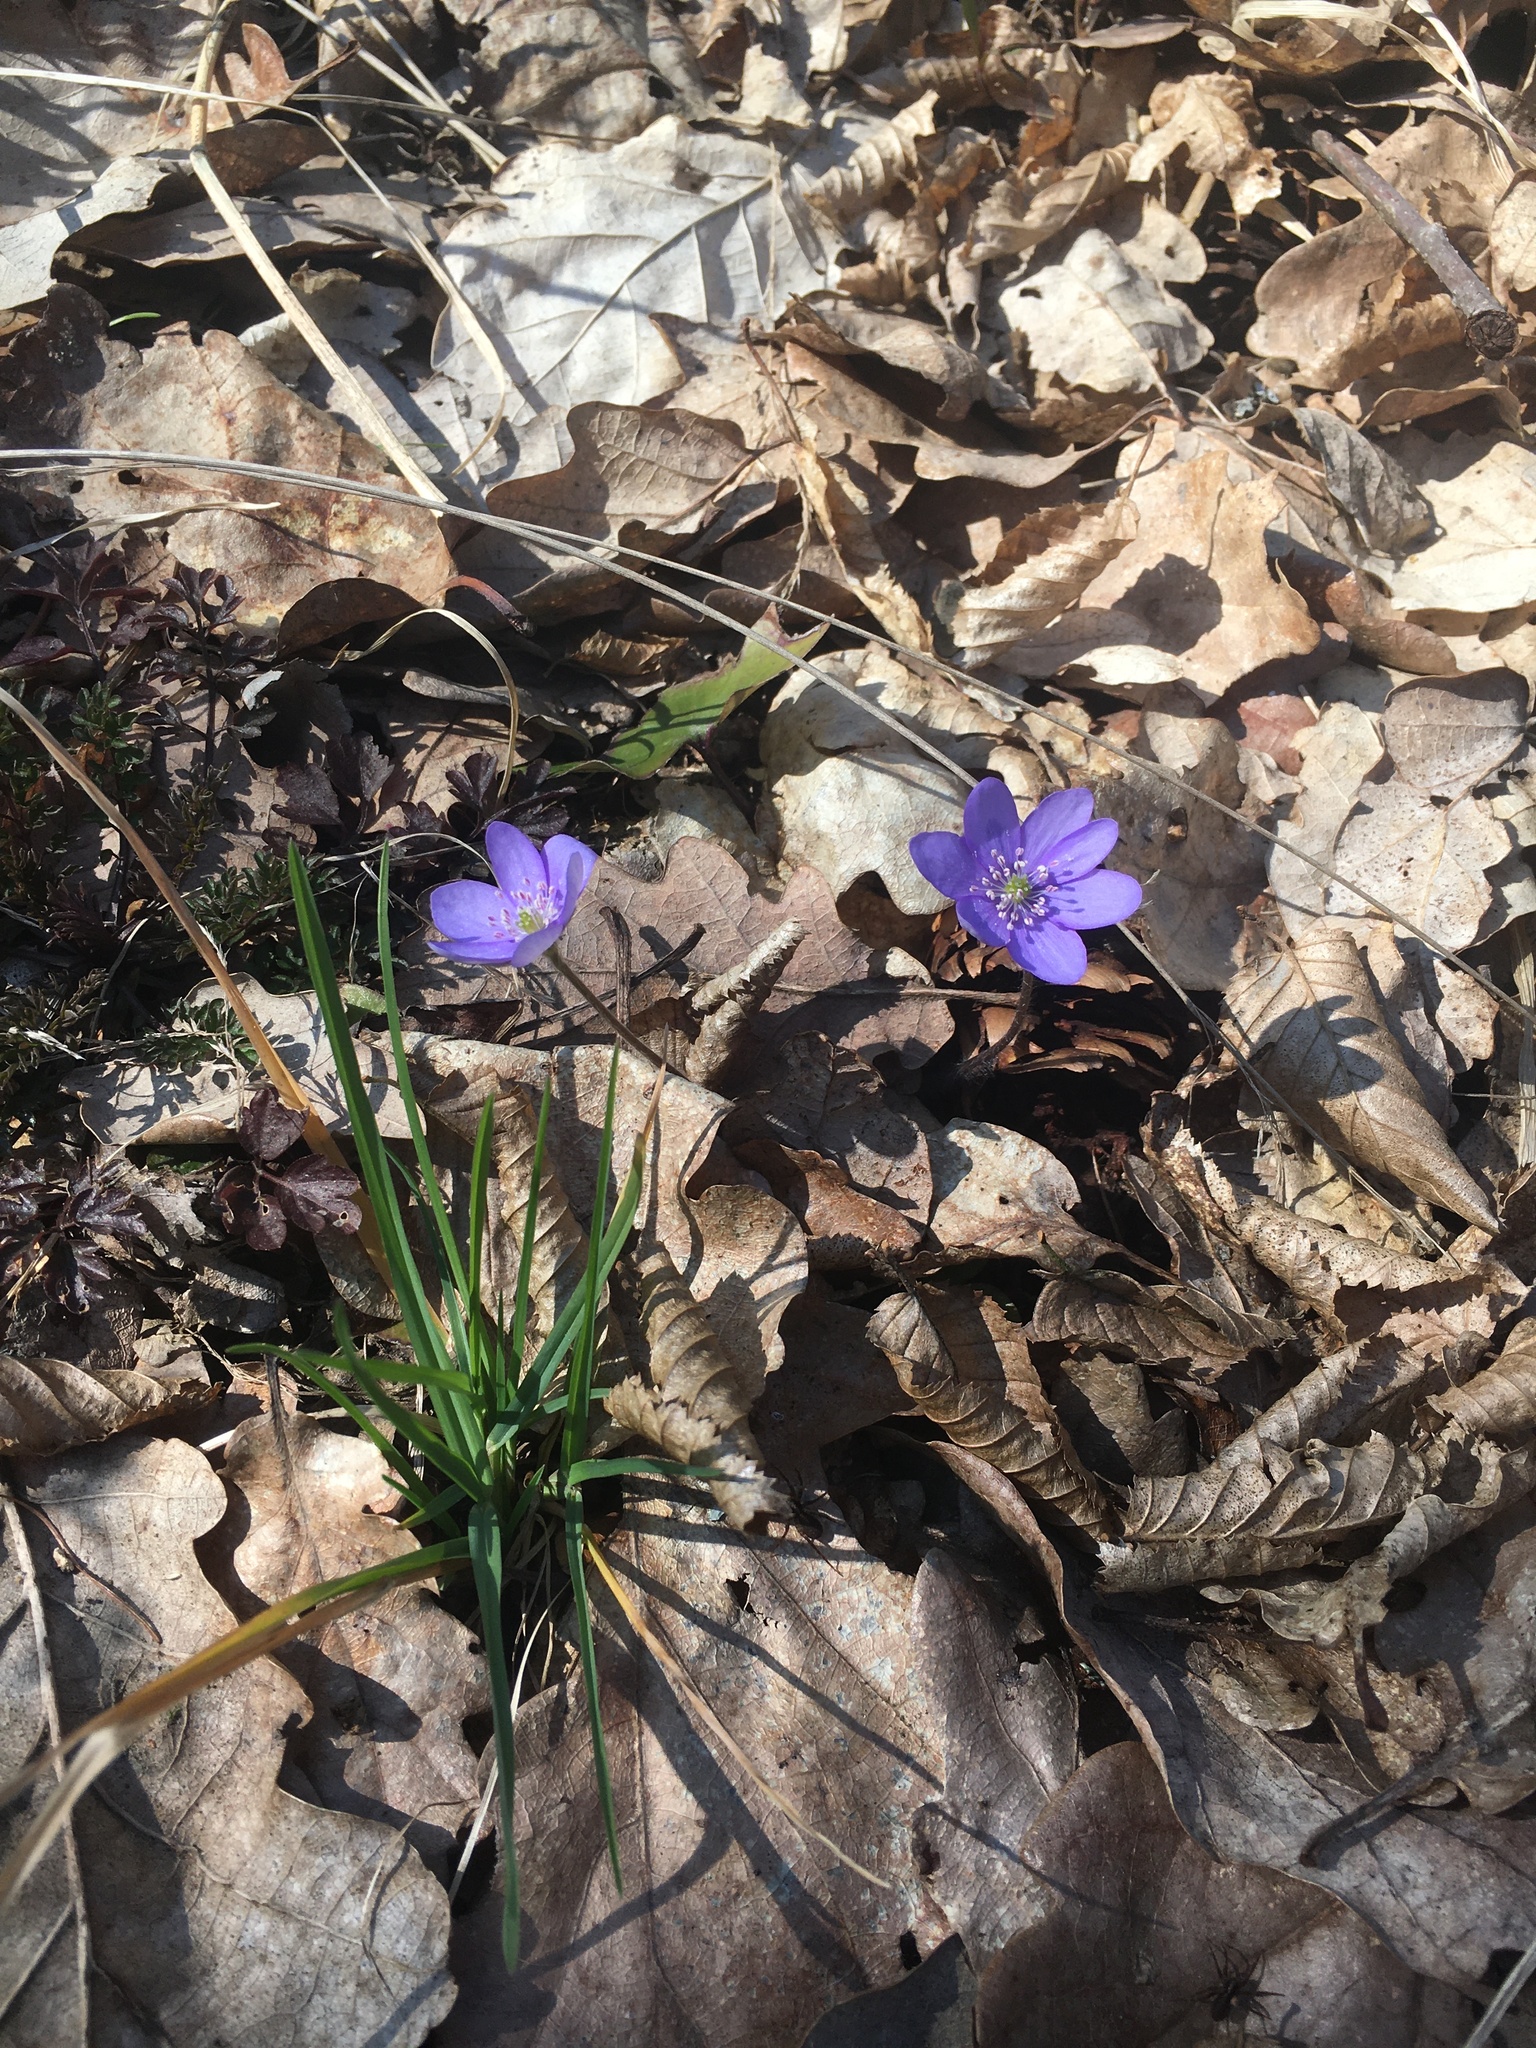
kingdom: Plantae
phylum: Tracheophyta
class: Magnoliopsida
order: Ranunculales
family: Ranunculaceae
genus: Hepatica
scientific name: Hepatica nobilis
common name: Liverleaf
